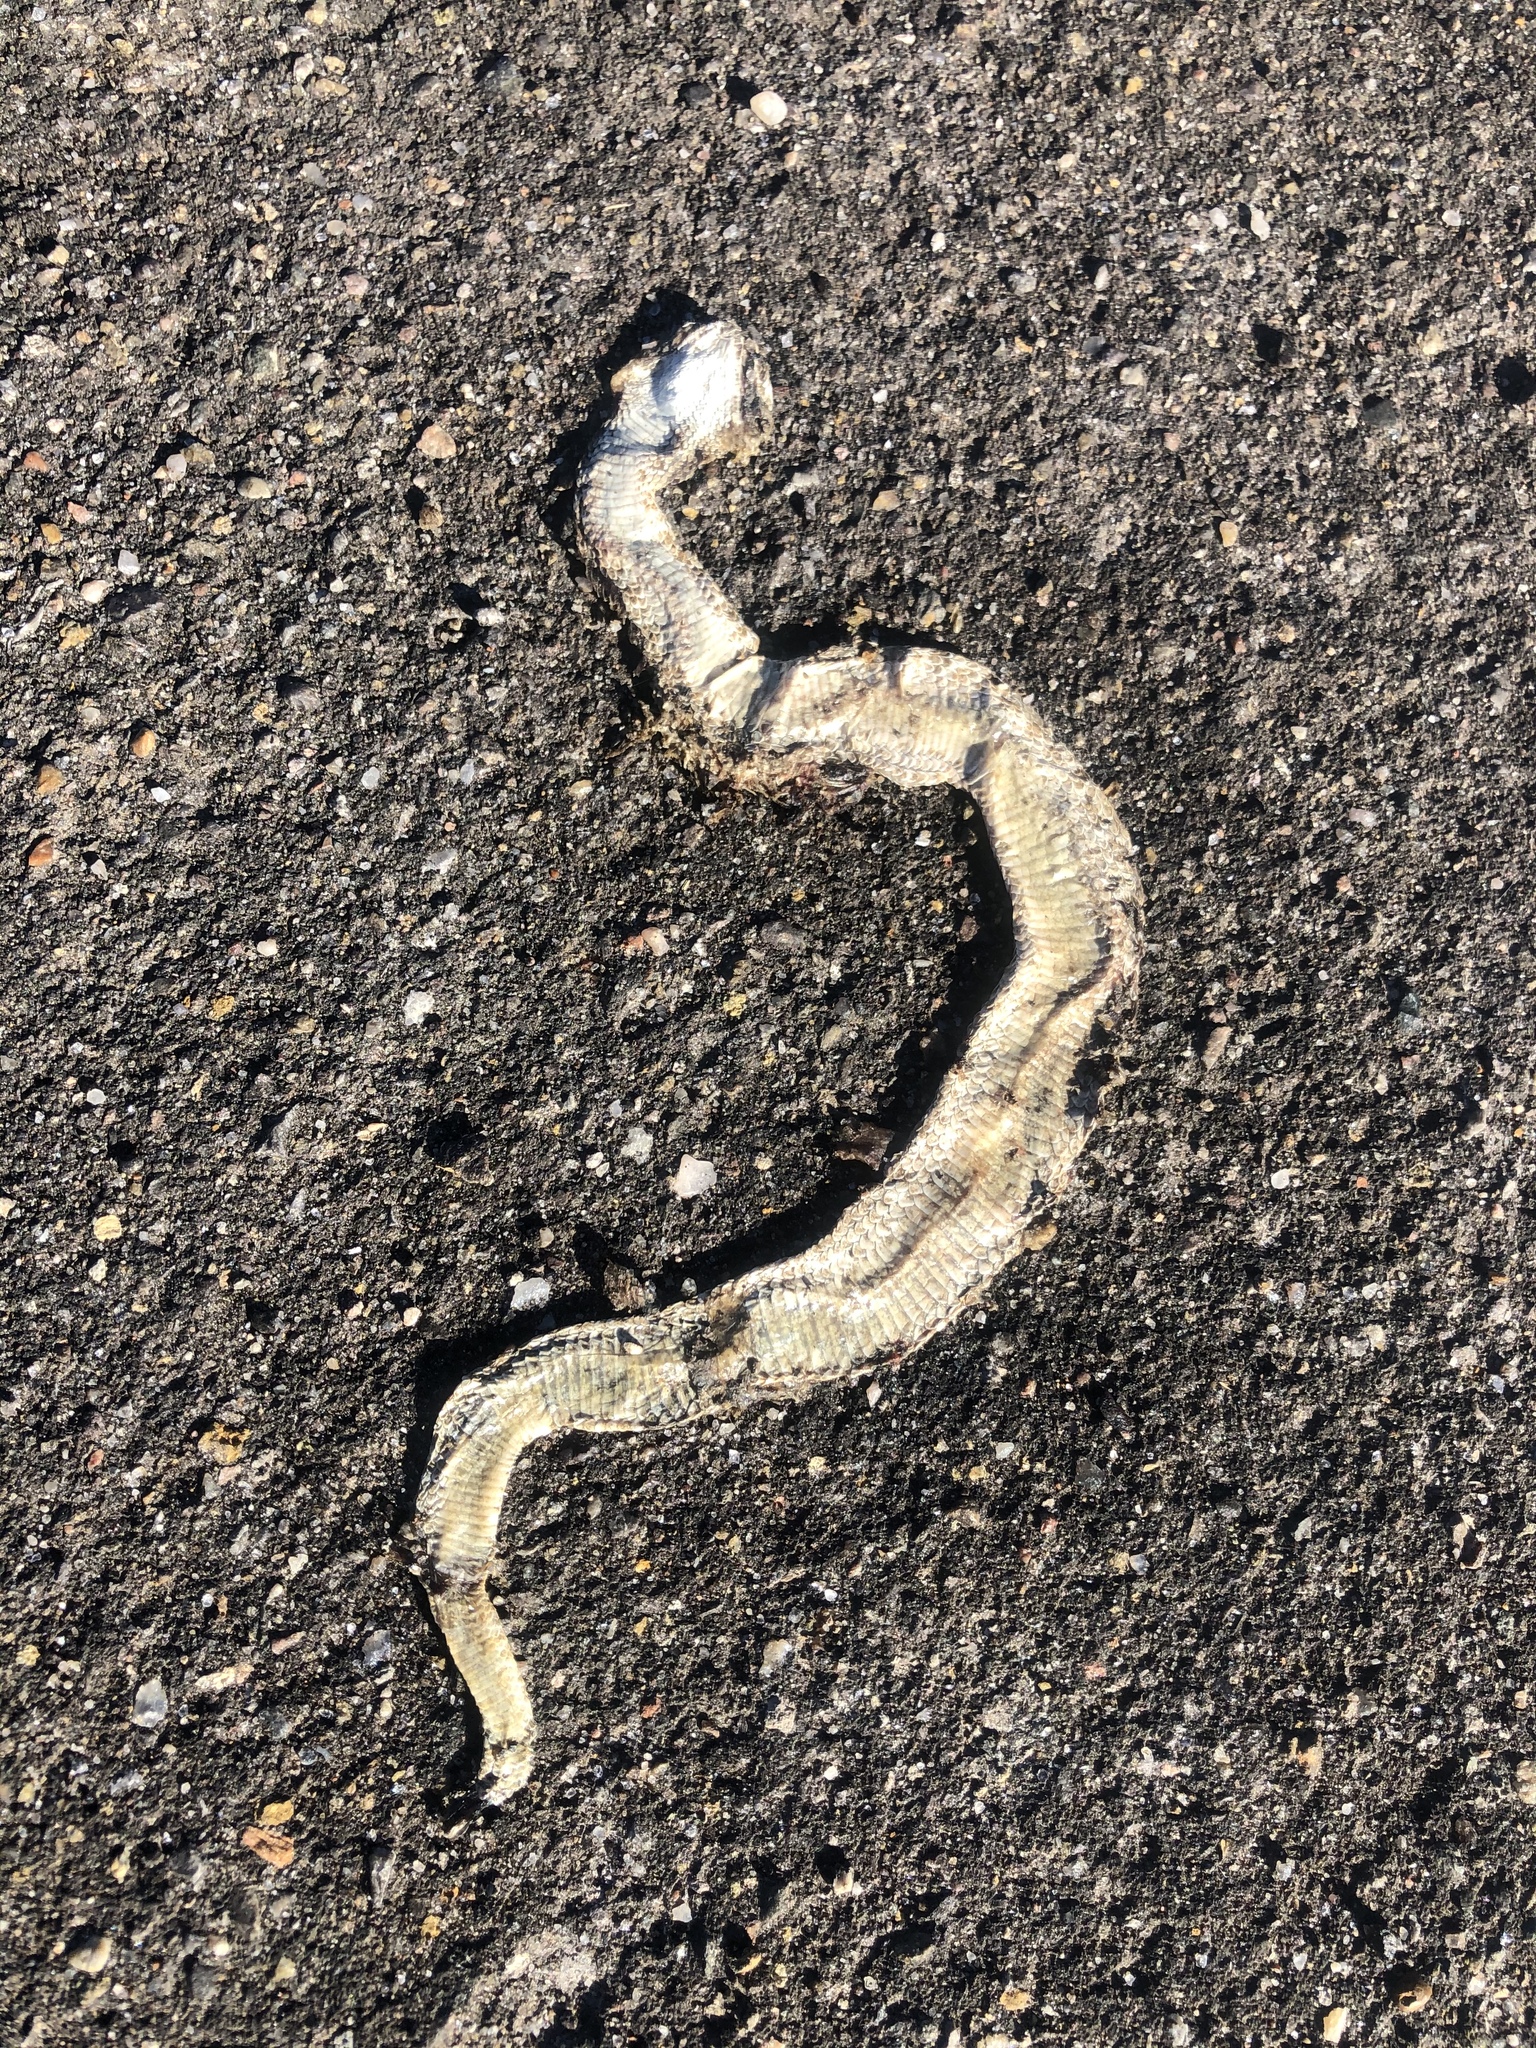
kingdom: Animalia
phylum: Chordata
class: Squamata
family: Viperidae
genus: Crotalus
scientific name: Crotalus viridis
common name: Prairie rattlesnake
